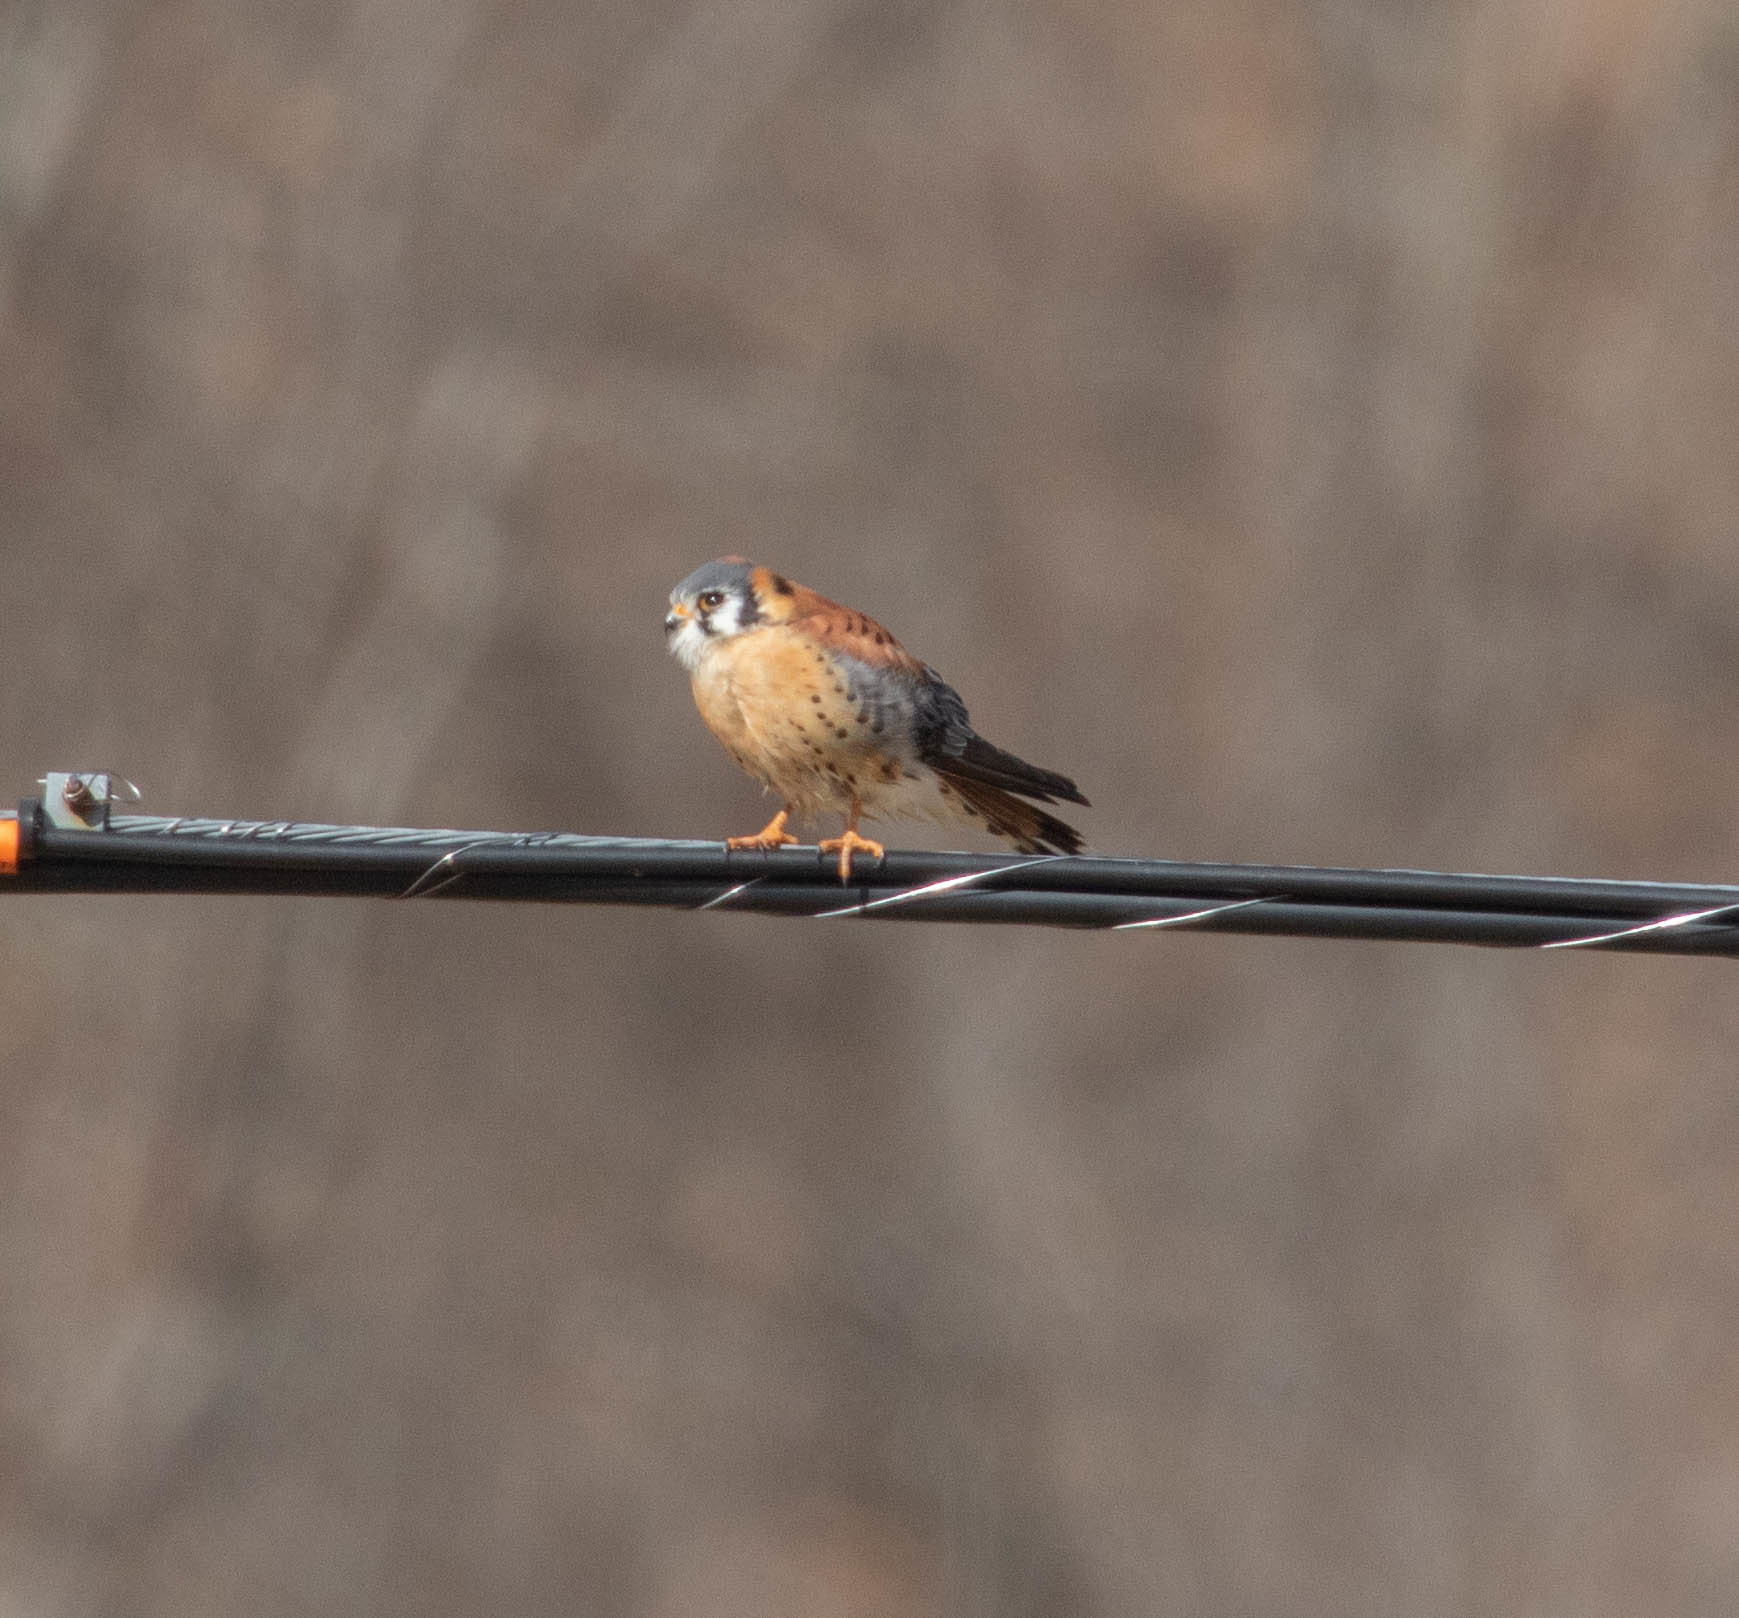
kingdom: Animalia
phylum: Chordata
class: Aves
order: Falconiformes
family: Falconidae
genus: Falco
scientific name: Falco sparverius
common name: American kestrel
